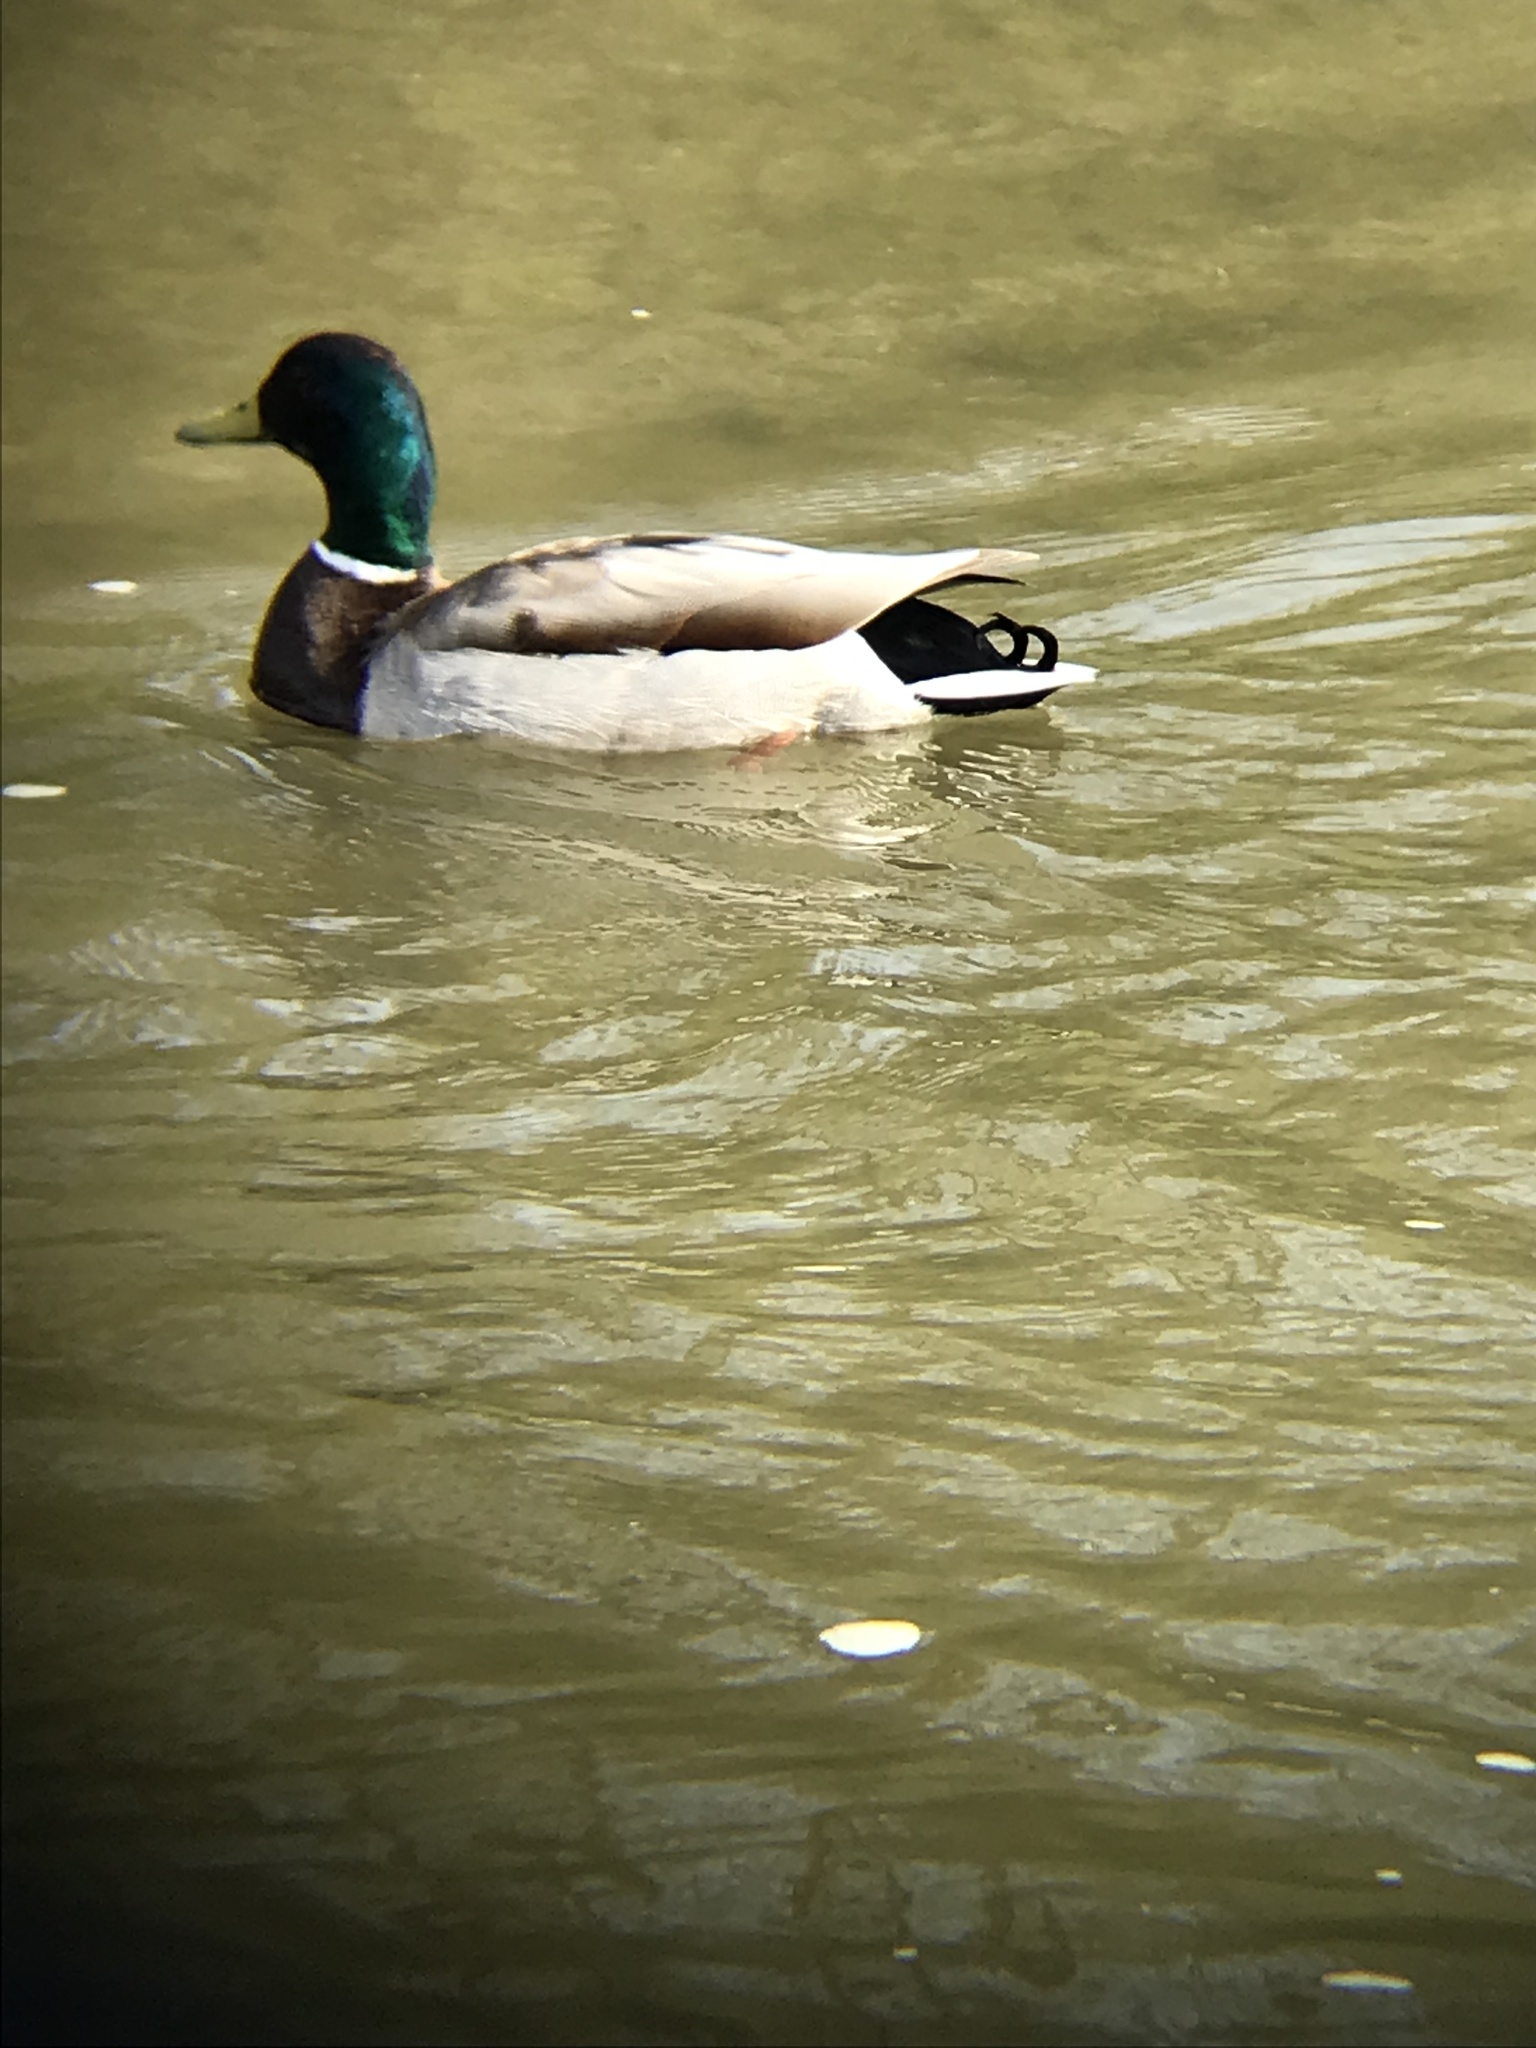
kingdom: Animalia
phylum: Chordata
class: Aves
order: Anseriformes
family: Anatidae
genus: Anas
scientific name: Anas platyrhynchos
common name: Mallard
